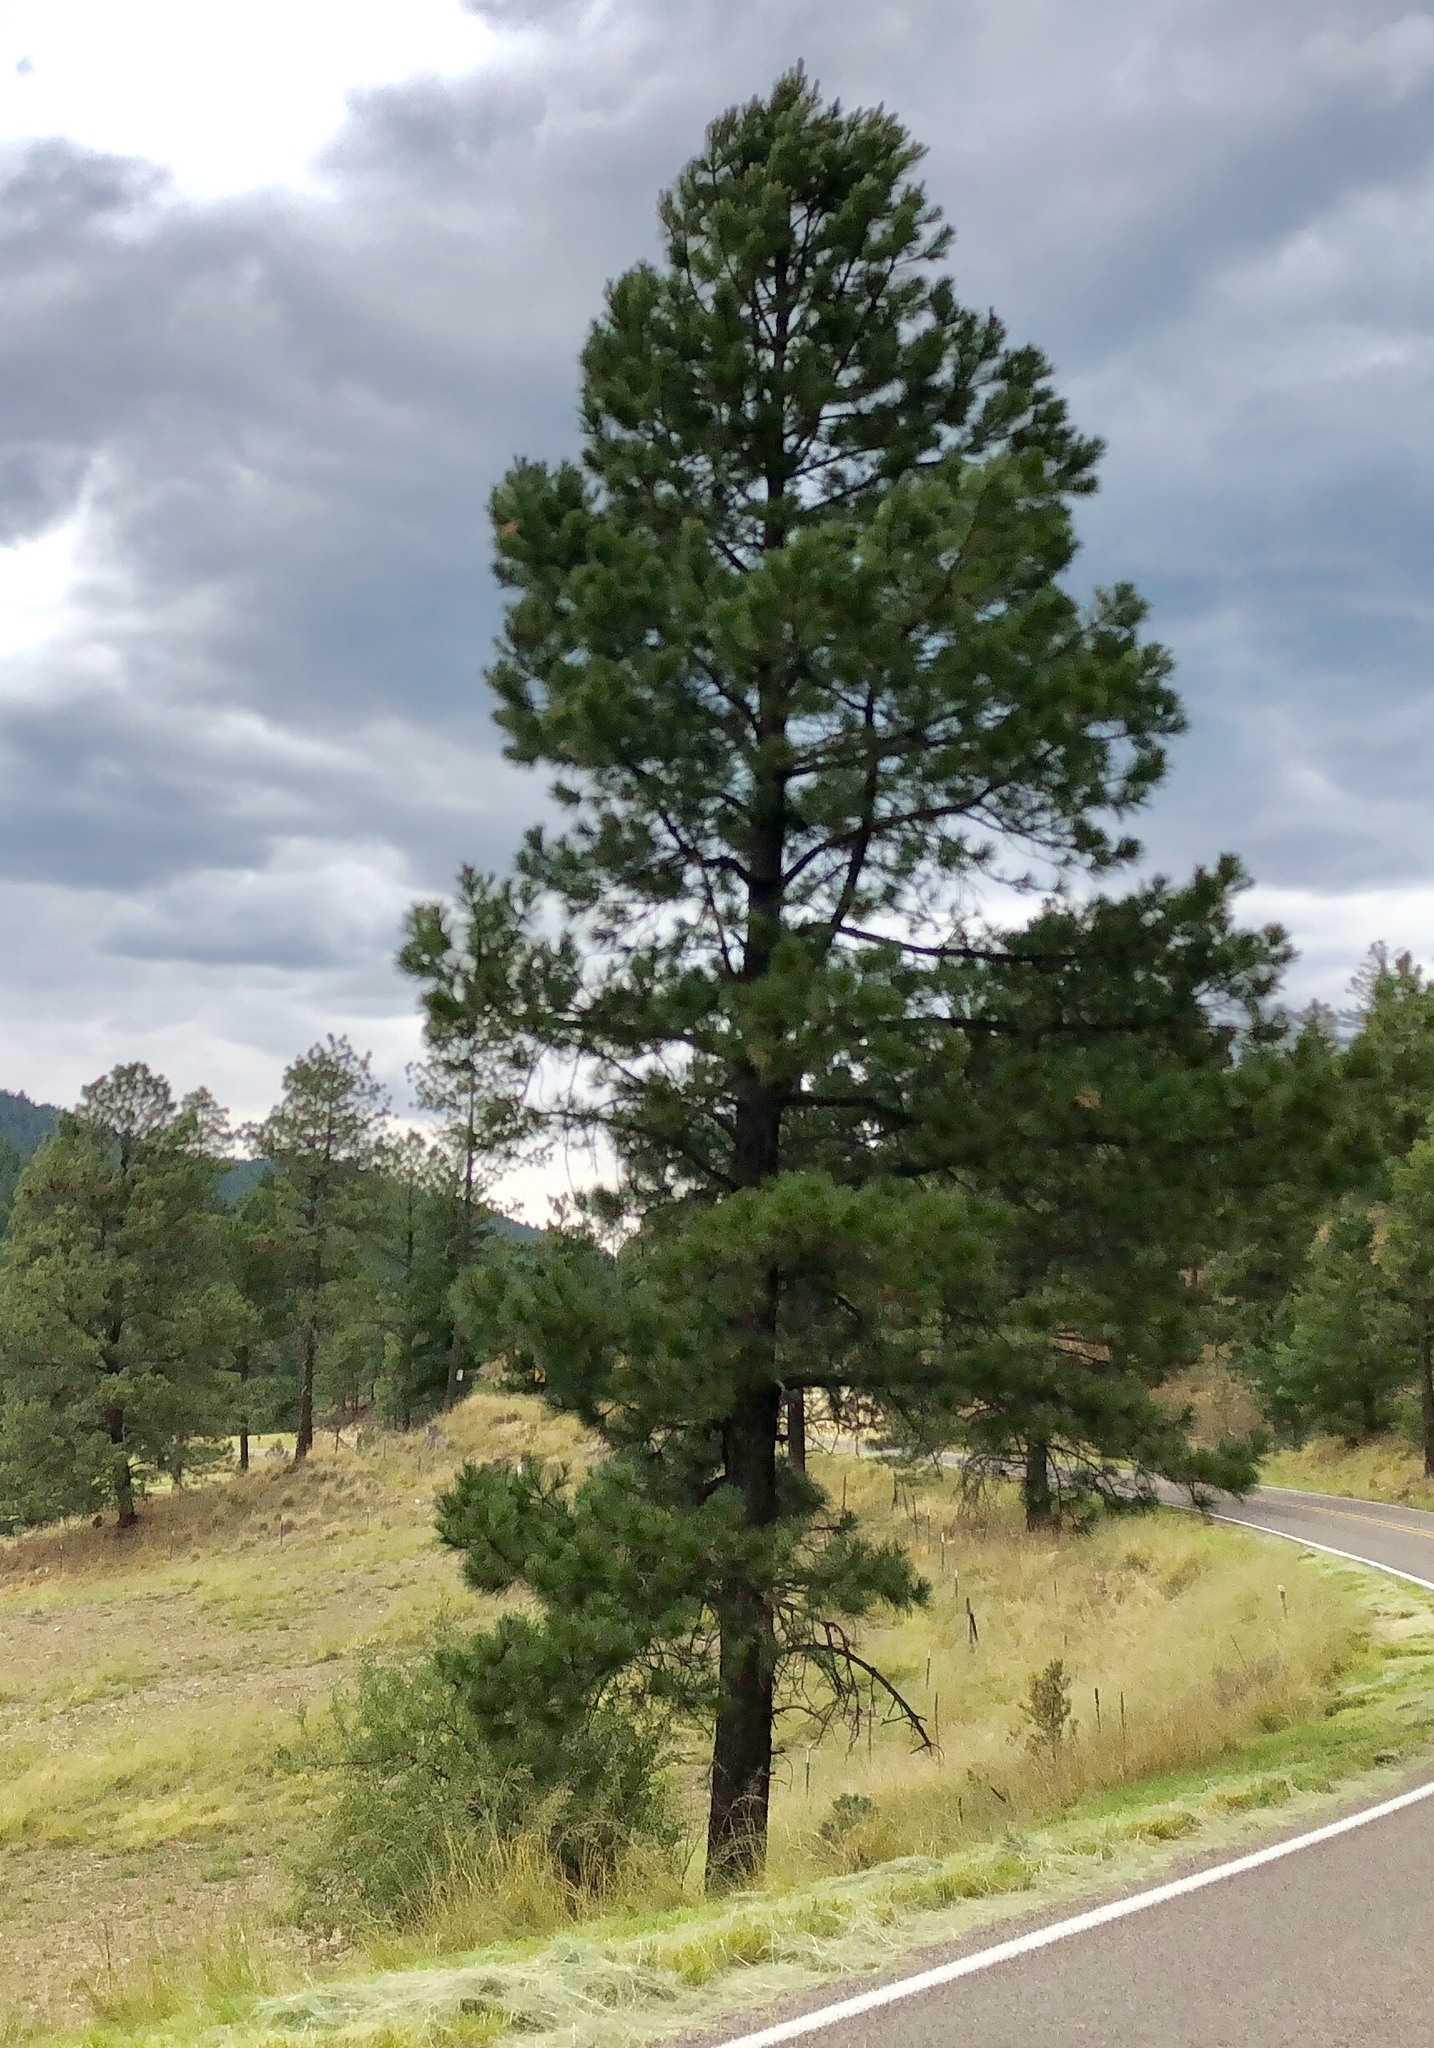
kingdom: Plantae
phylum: Tracheophyta
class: Pinopsida
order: Pinales
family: Pinaceae
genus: Pinus
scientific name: Pinus ponderosa
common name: Western yellow-pine
